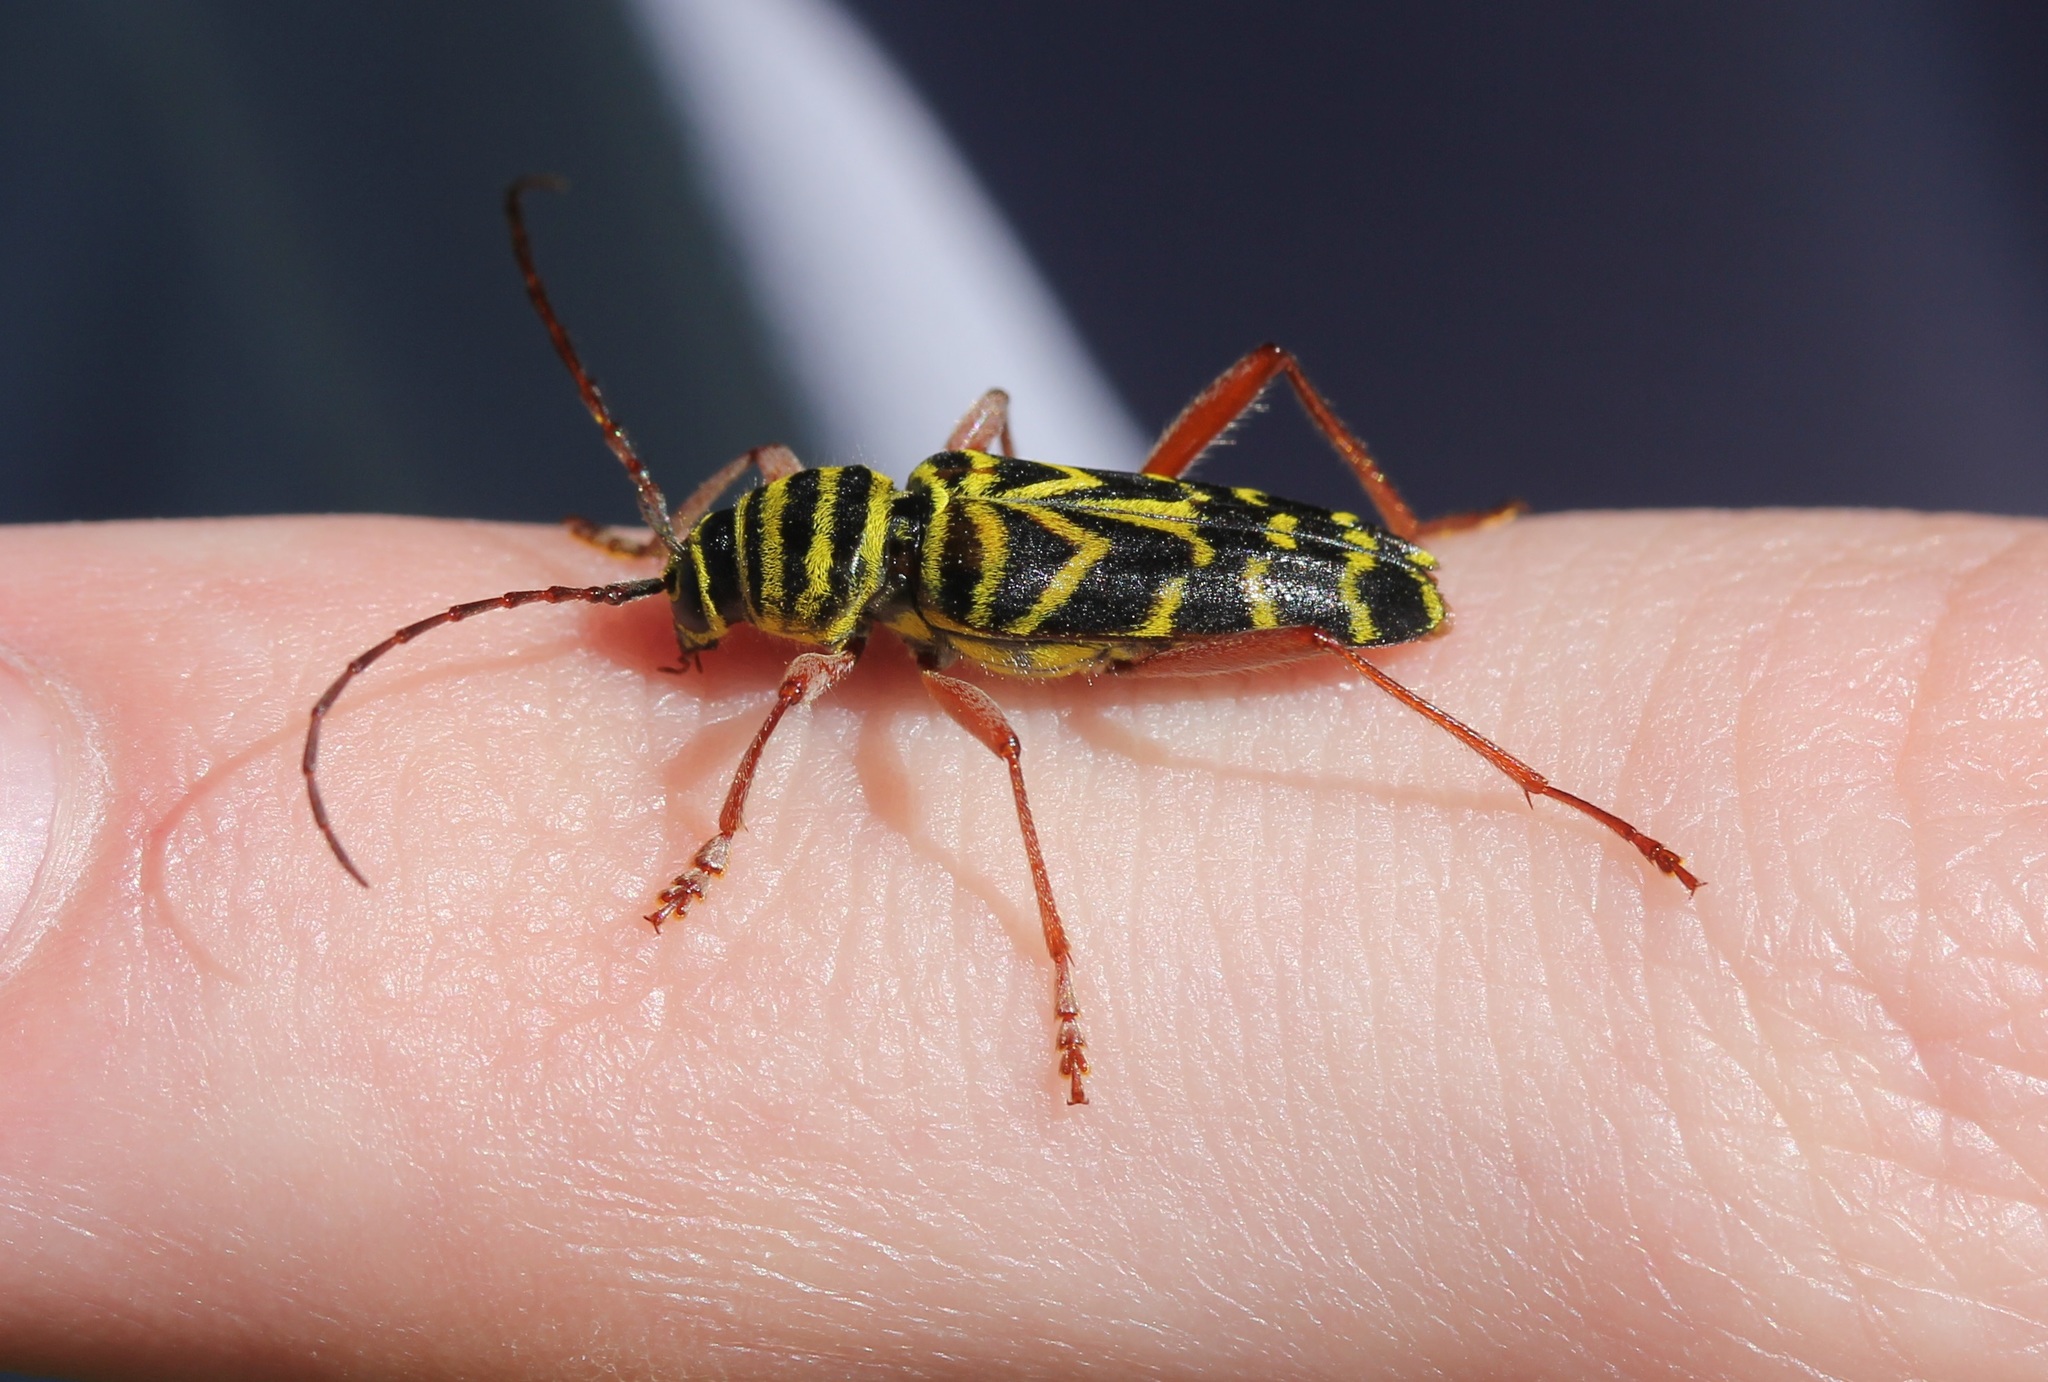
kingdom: Animalia
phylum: Arthropoda
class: Insecta
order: Coleoptera
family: Cerambycidae
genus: Megacyllene
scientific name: Megacyllene robiniae
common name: Locust borer
